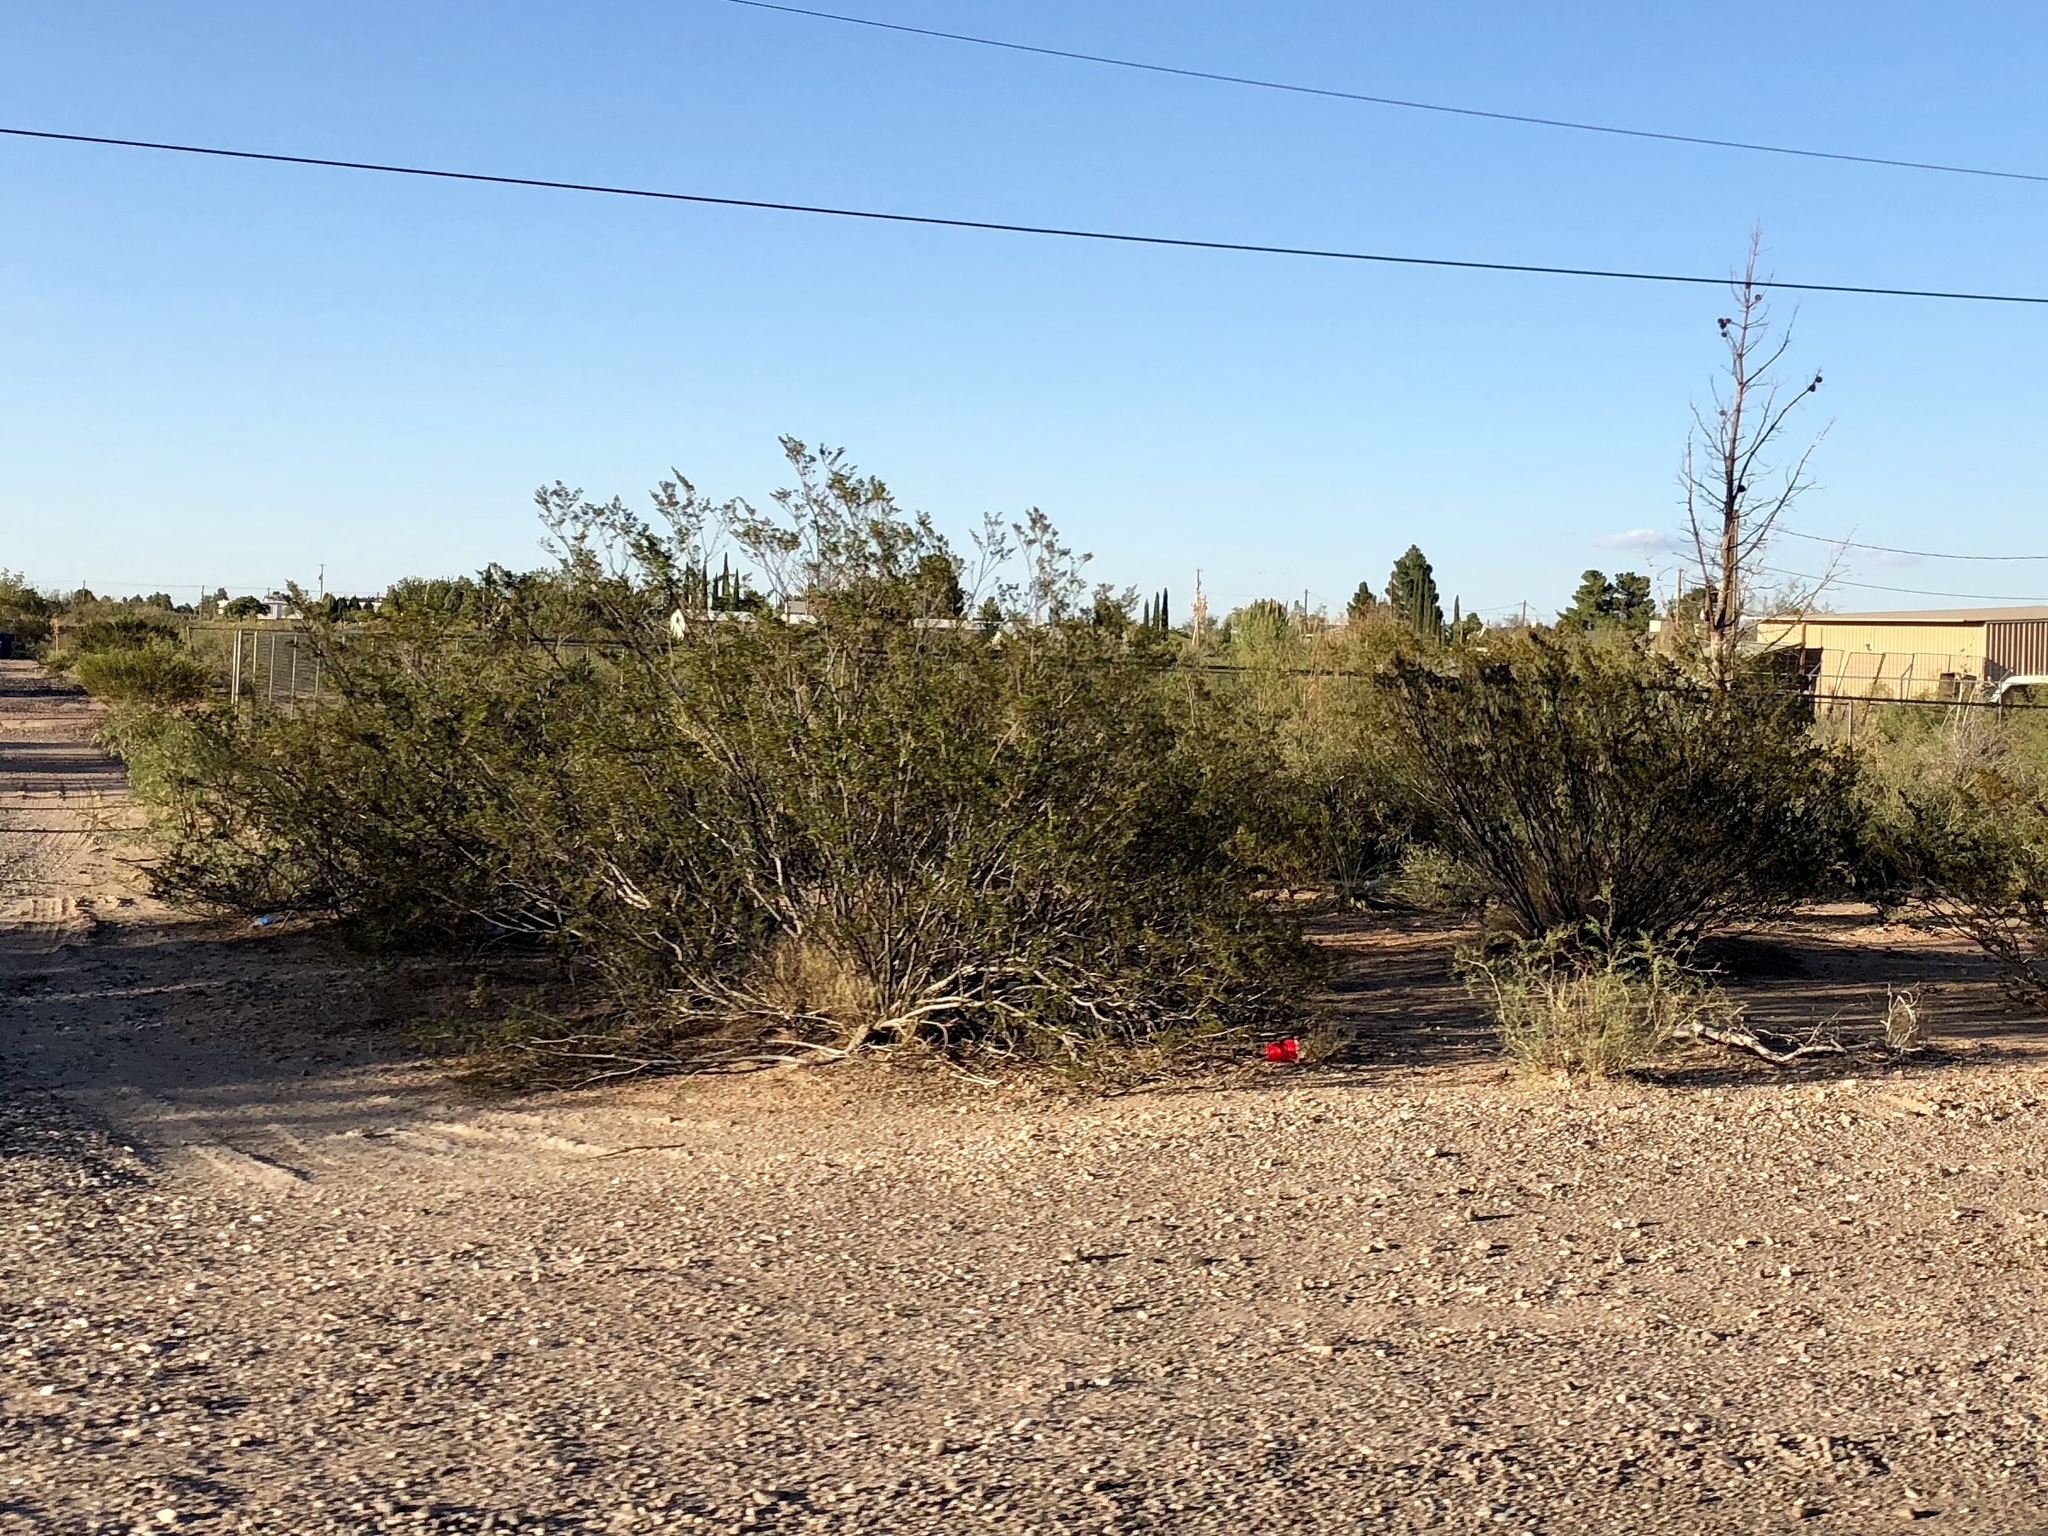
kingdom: Plantae
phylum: Tracheophyta
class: Magnoliopsida
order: Zygophyllales
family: Zygophyllaceae
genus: Larrea
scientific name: Larrea tridentata
